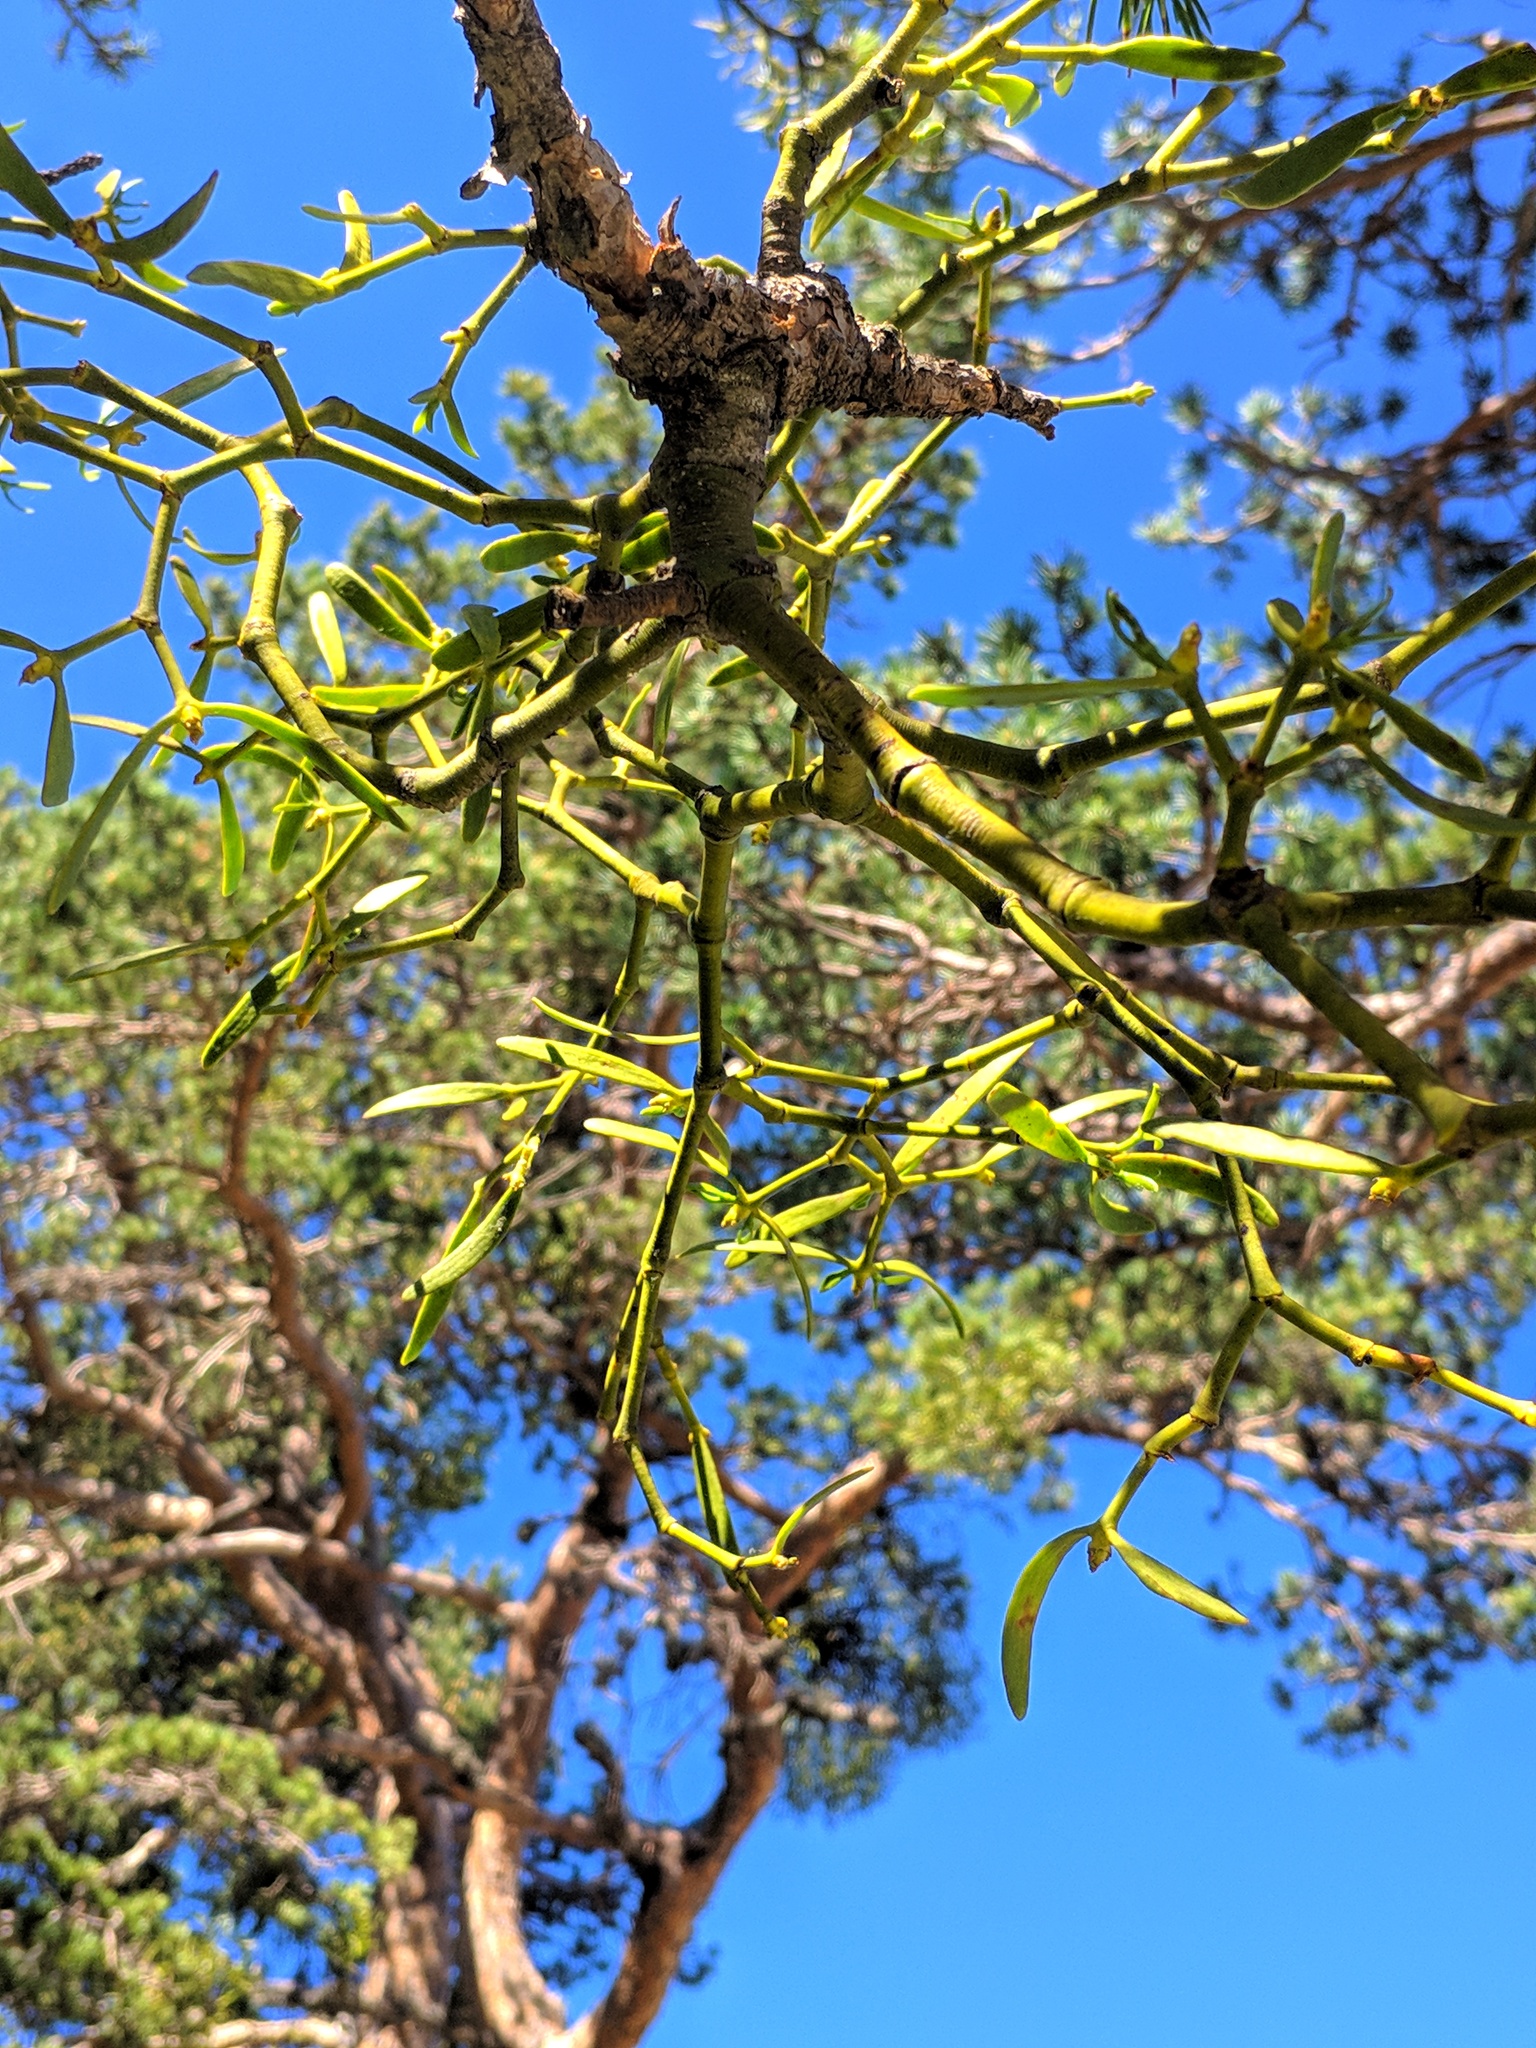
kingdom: Plantae
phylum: Tracheophyta
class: Magnoliopsida
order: Santalales
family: Viscaceae
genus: Viscum
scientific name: Viscum laxum
